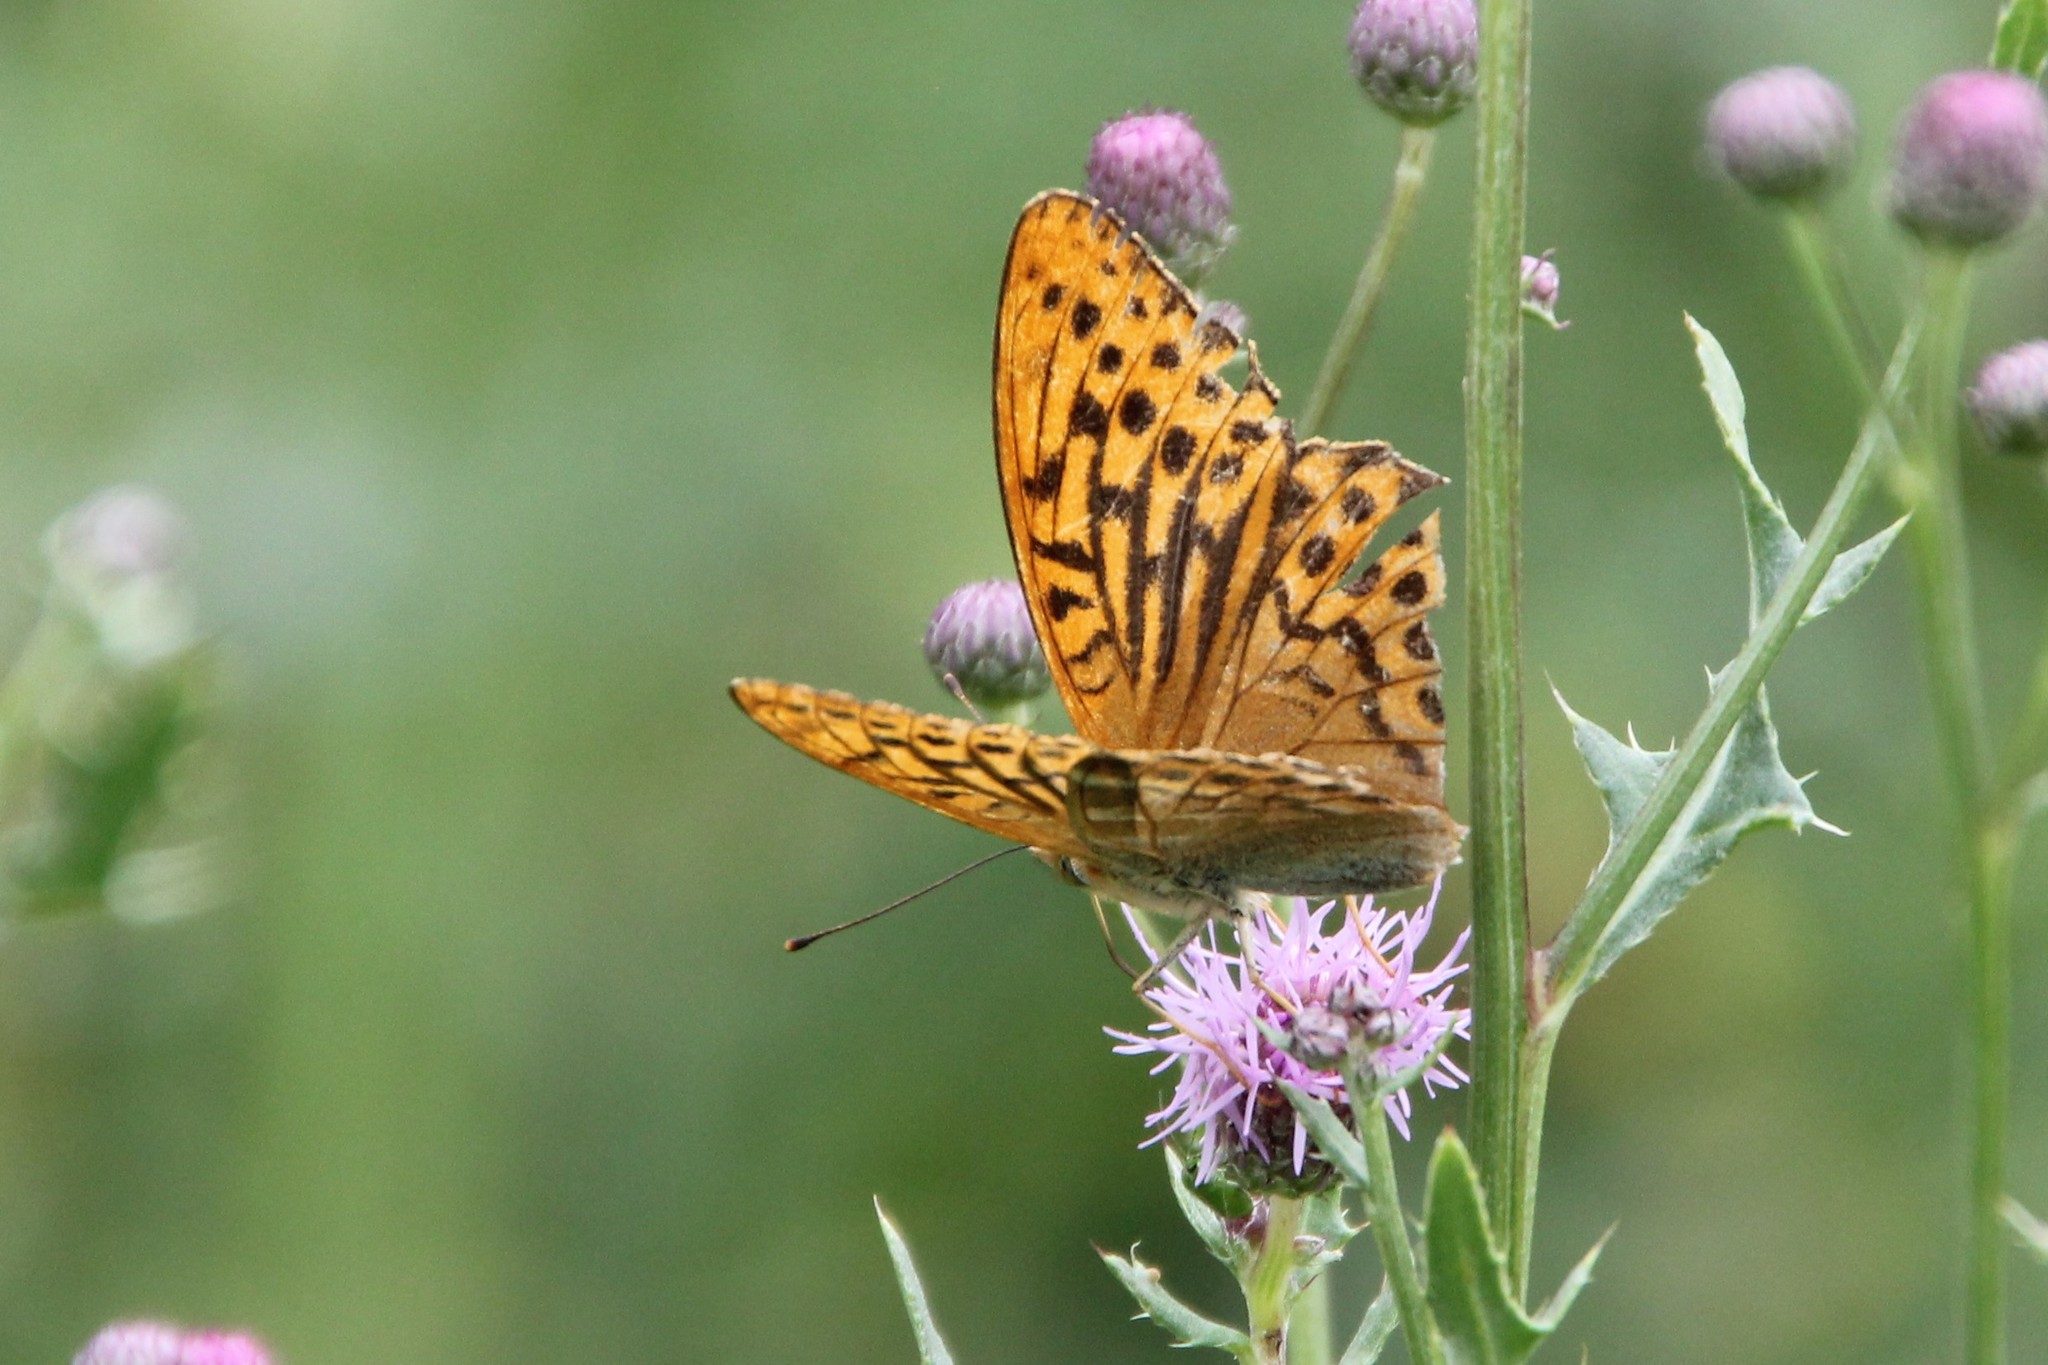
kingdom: Animalia
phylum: Arthropoda
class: Insecta
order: Lepidoptera
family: Nymphalidae
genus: Argynnis
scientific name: Argynnis paphia
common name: Silver-washed fritillary
